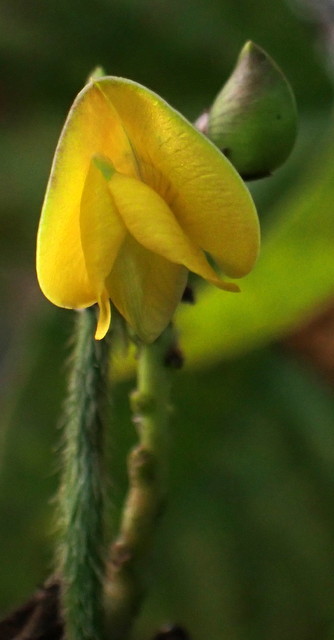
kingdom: Plantae
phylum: Tracheophyta
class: Magnoliopsida
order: Fabales
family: Fabaceae
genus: Vigna
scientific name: Vigna luteola
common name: Hairypod cowpea
